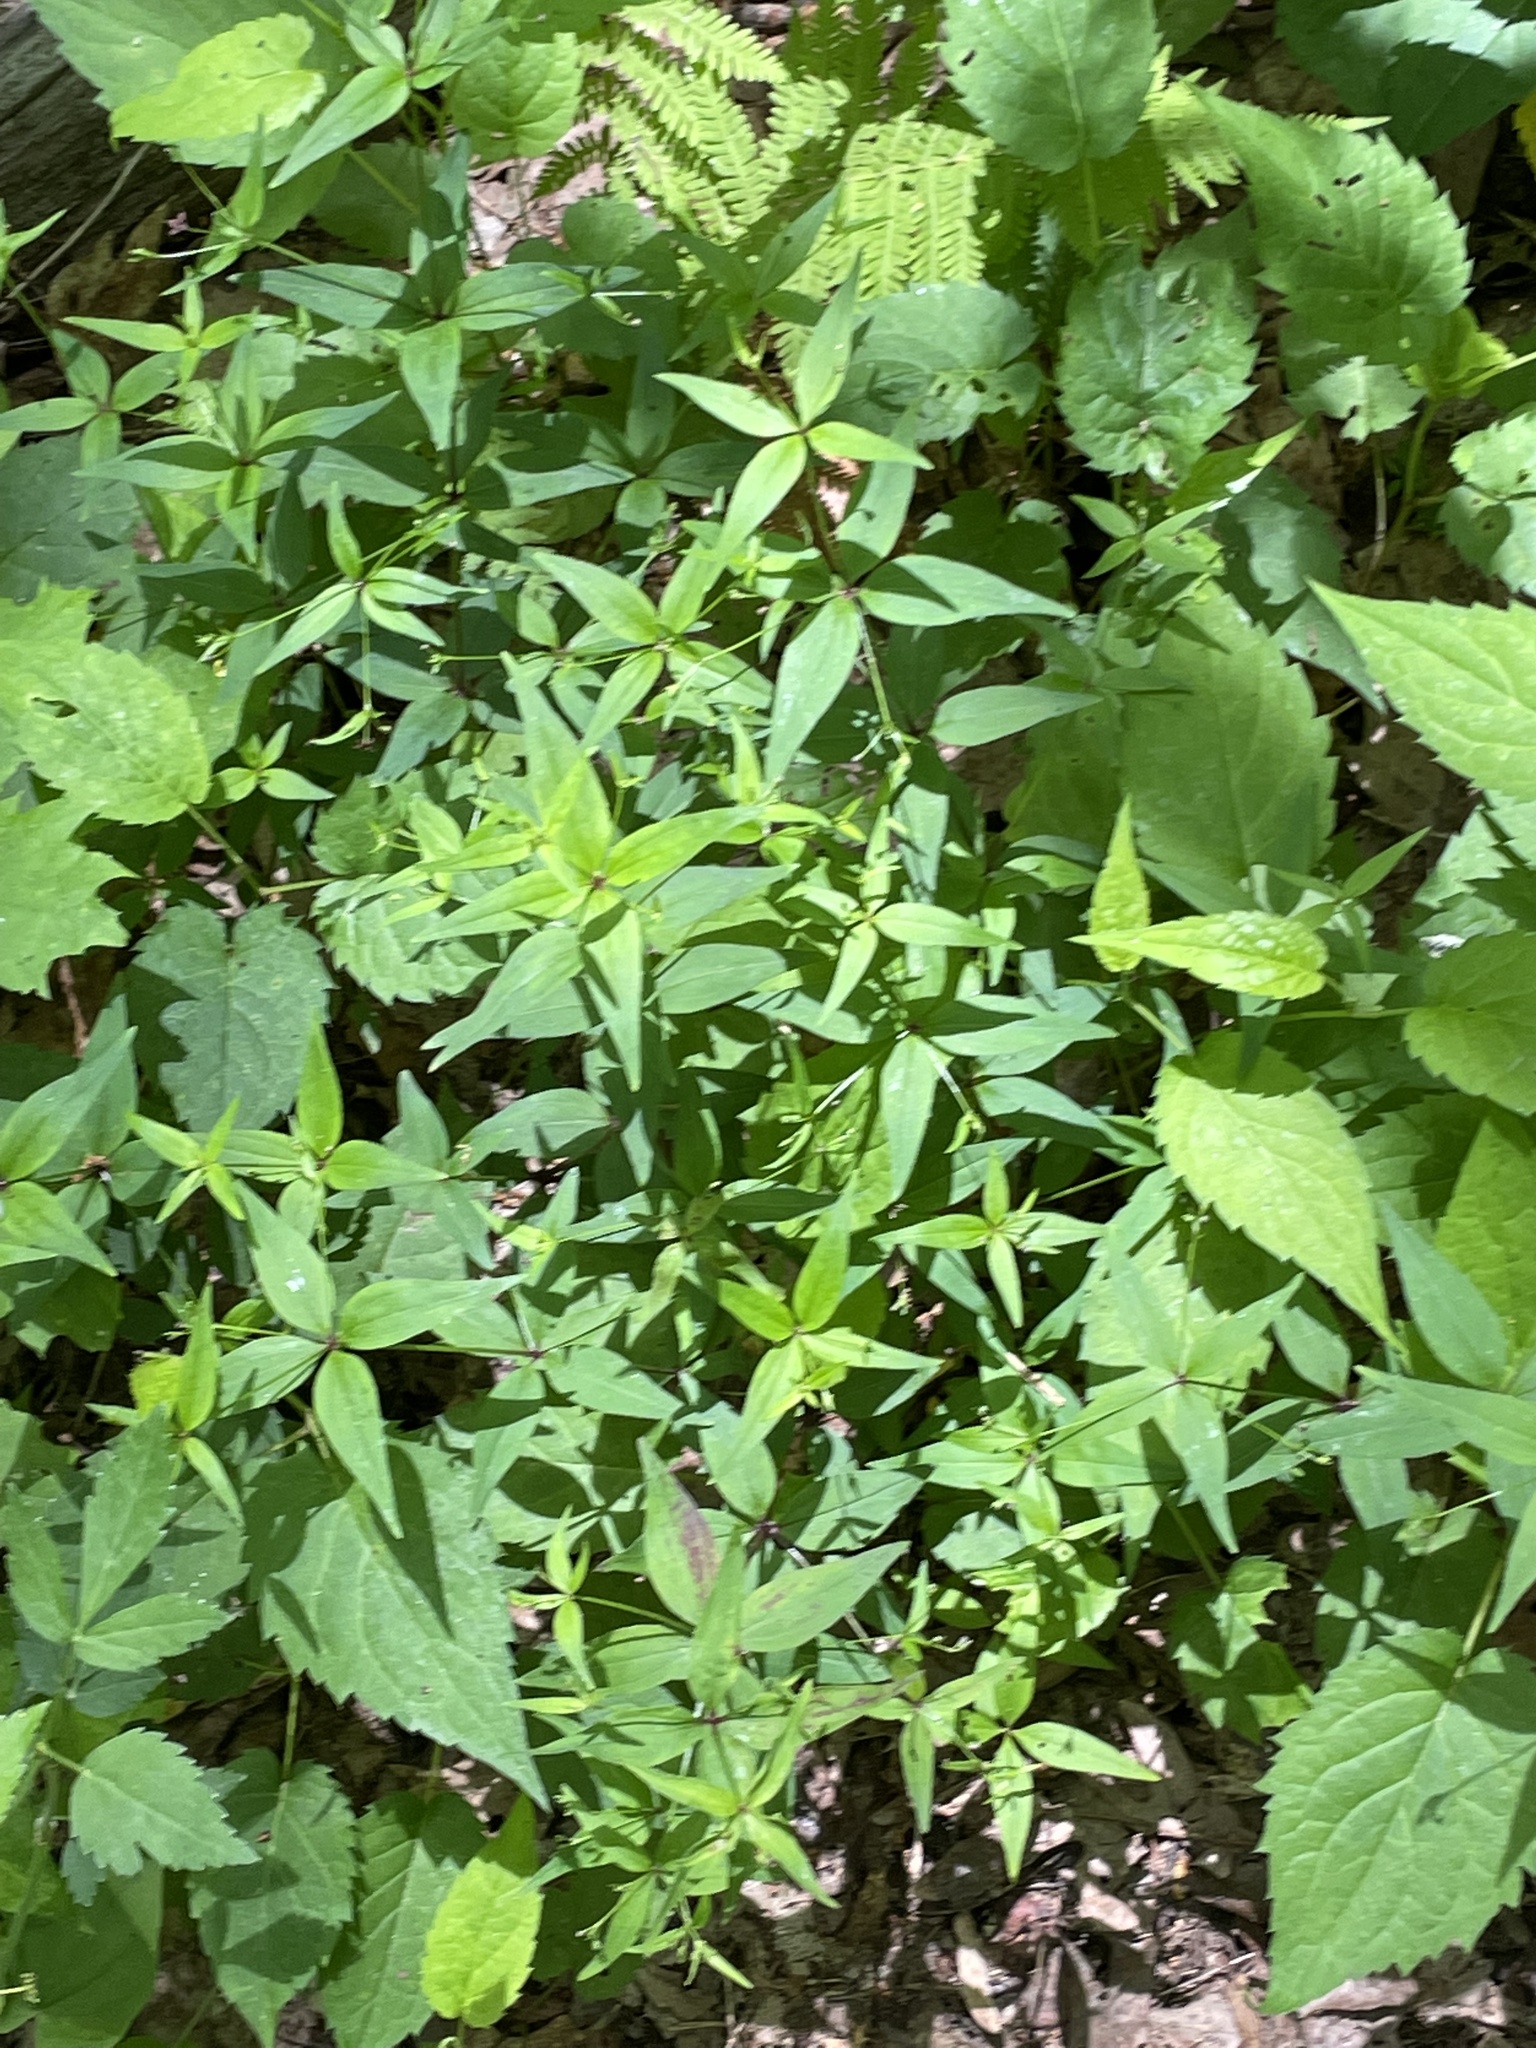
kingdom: Plantae
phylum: Tracheophyta
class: Magnoliopsida
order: Gentianales
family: Rubiaceae
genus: Galium
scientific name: Galium latifolium
